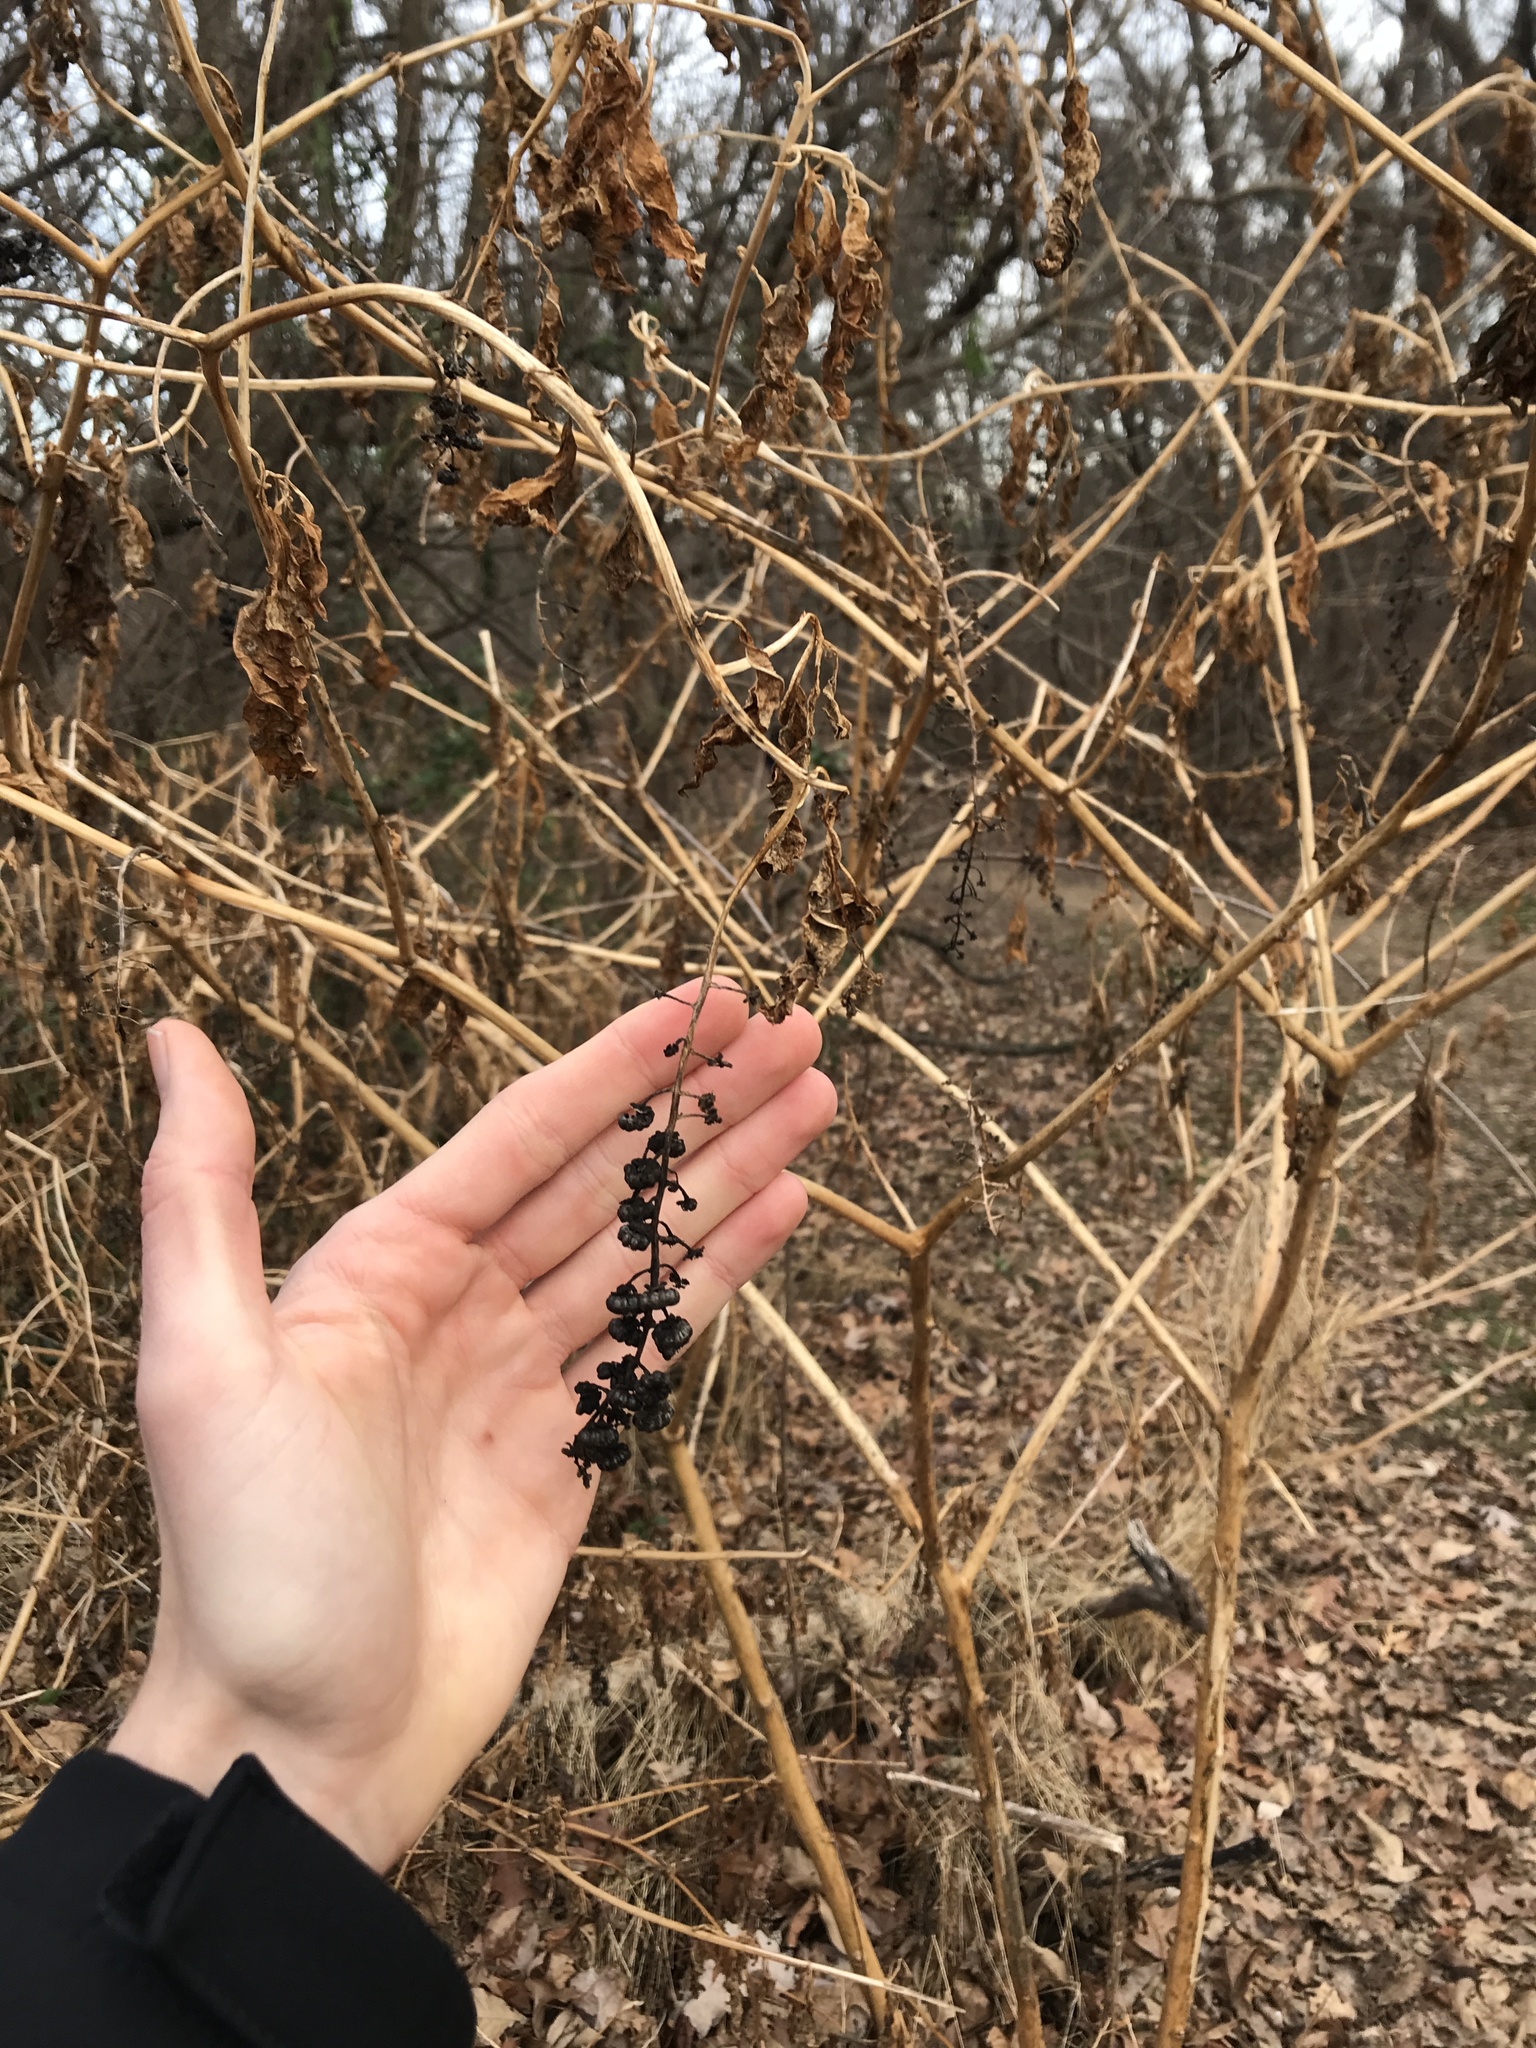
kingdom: Plantae
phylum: Tracheophyta
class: Magnoliopsida
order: Caryophyllales
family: Phytolaccaceae
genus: Phytolacca
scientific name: Phytolacca americana
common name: American pokeweed
